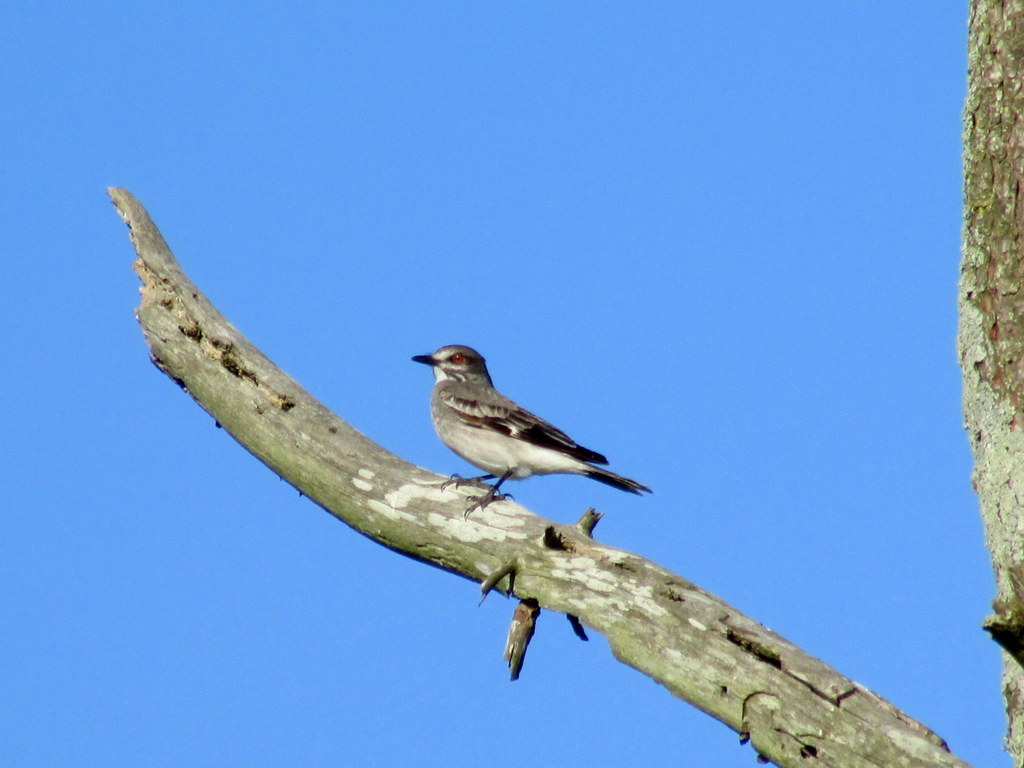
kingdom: Animalia
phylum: Chordata
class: Aves
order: Passeriformes
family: Tyrannidae
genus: Xolmis
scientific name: Xolmis cinereus
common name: Grey monjita
